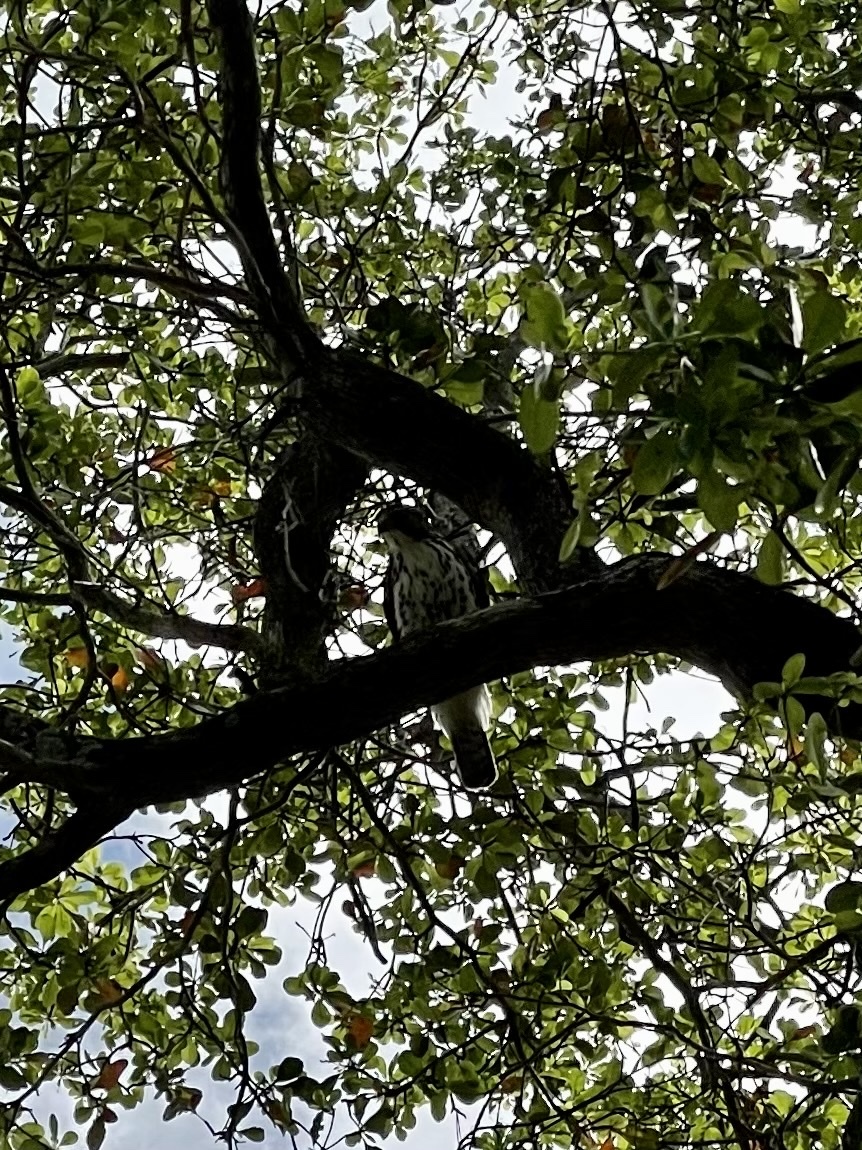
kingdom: Animalia
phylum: Chordata
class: Aves
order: Accipitriformes
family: Accipitridae
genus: Buteo
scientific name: Buteo platypterus
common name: Broad-winged hawk
